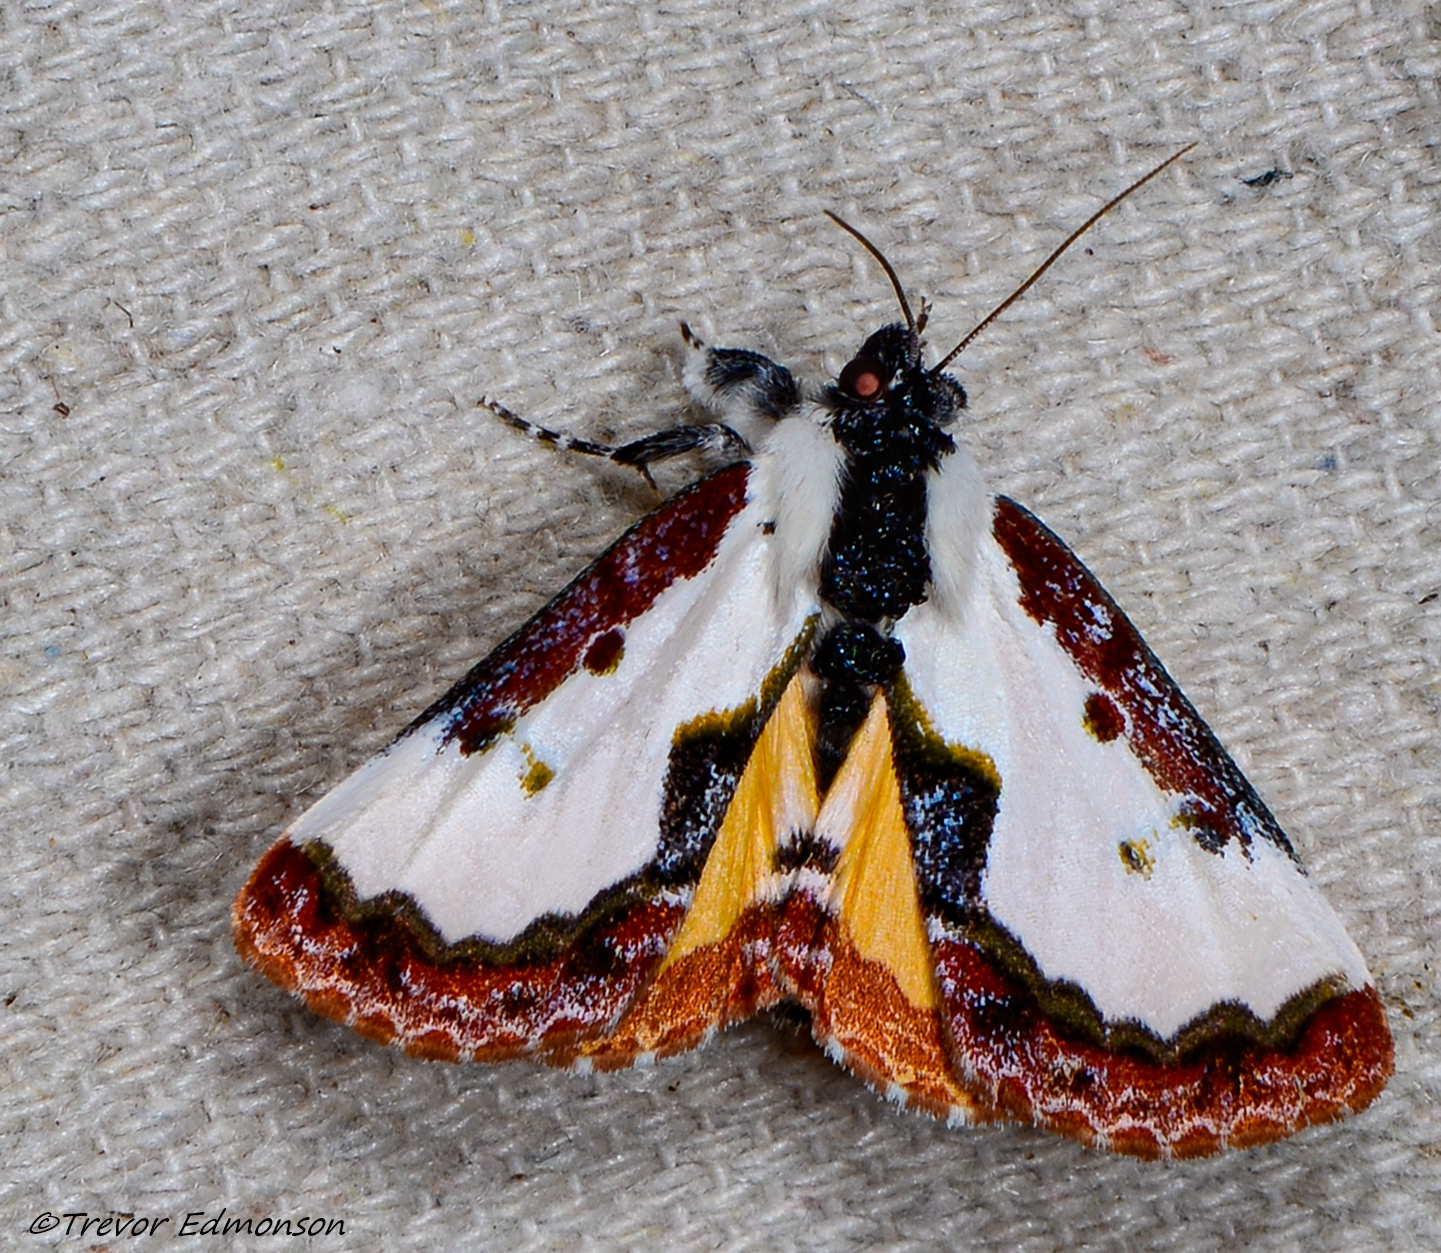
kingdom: Animalia
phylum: Arthropoda
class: Insecta
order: Lepidoptera
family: Noctuidae
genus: Eudryas
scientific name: Eudryas unio
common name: Pearly wood-nymph
